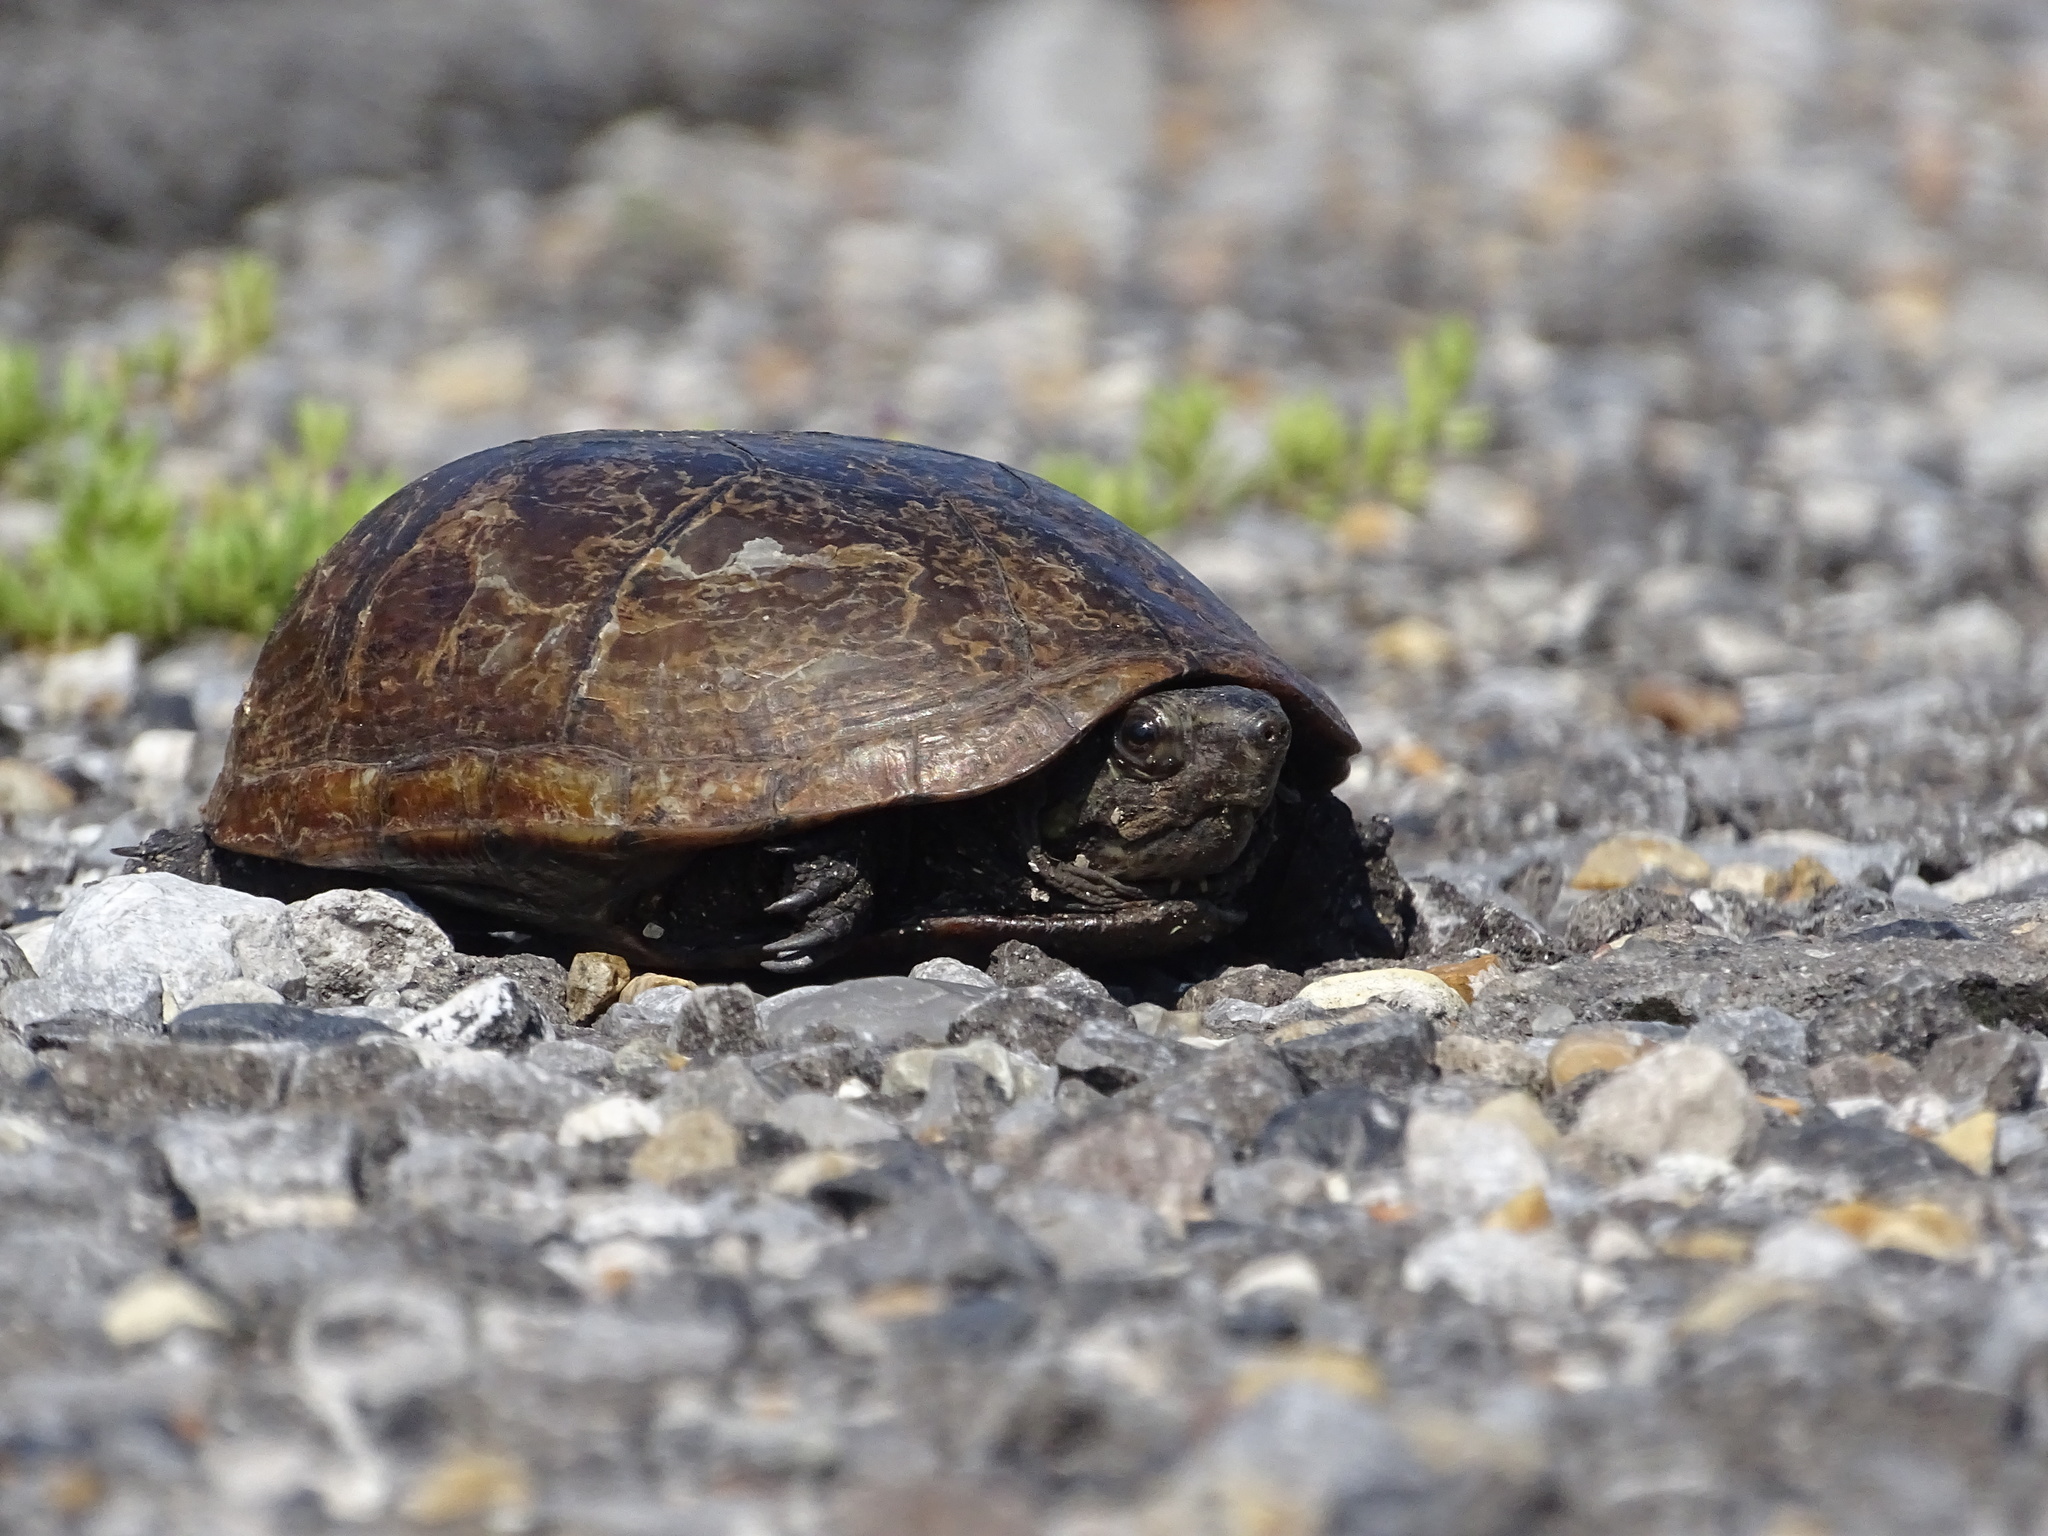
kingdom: Animalia
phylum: Chordata
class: Testudines
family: Kinosternidae
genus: Kinosternon
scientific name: Kinosternon subrubrum
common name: Eastern mud turtle
